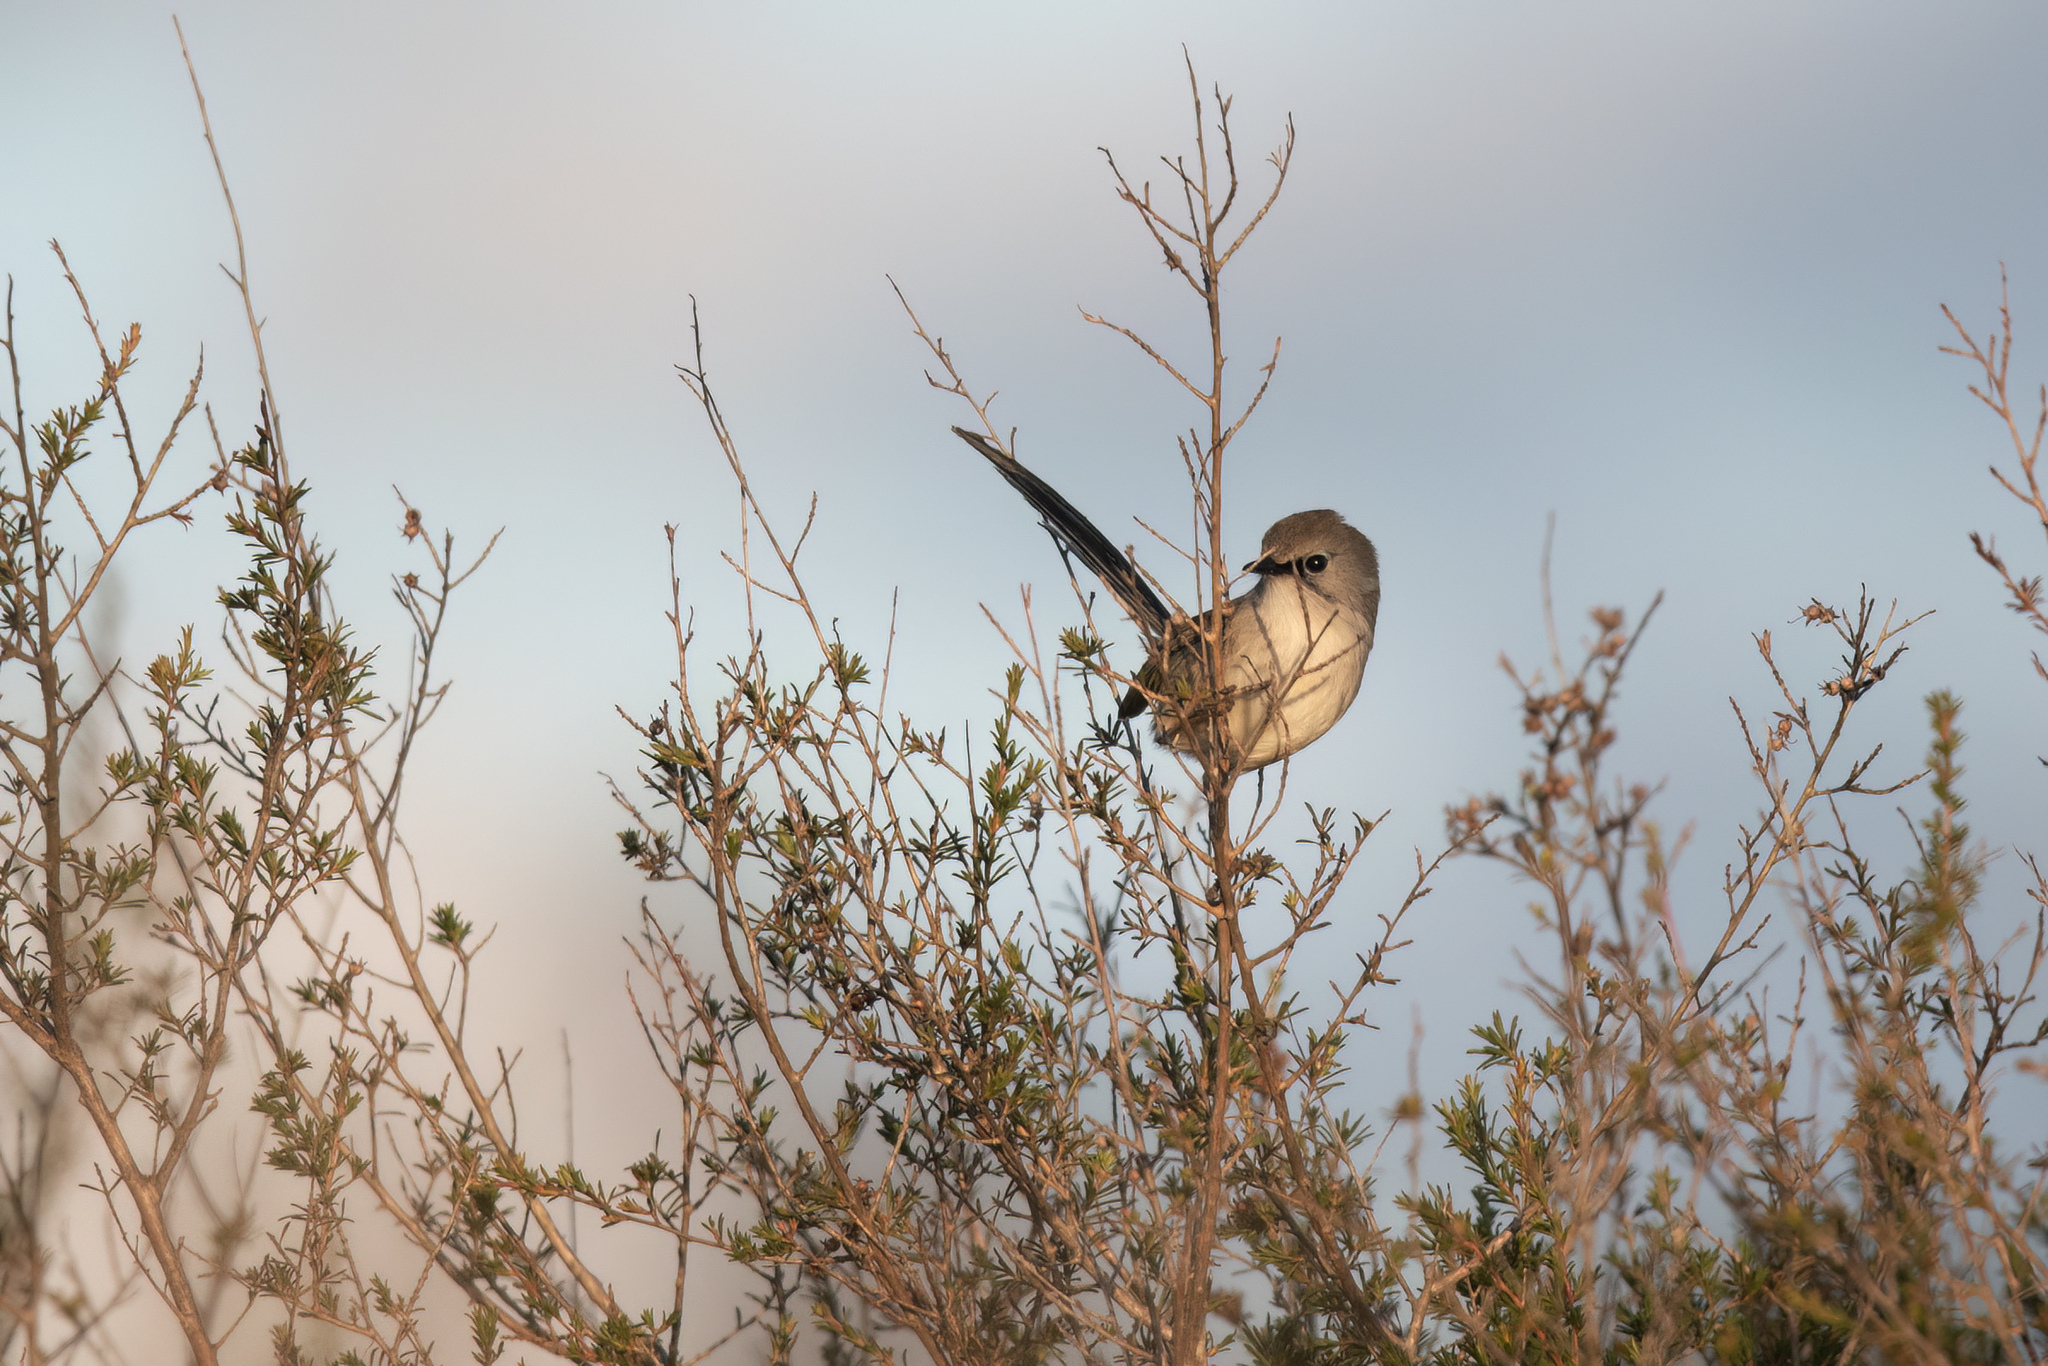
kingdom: Animalia
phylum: Chordata
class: Aves
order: Passeriformes
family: Maluridae
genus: Malurus
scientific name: Malurus lamberti
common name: Variegated fairywren
